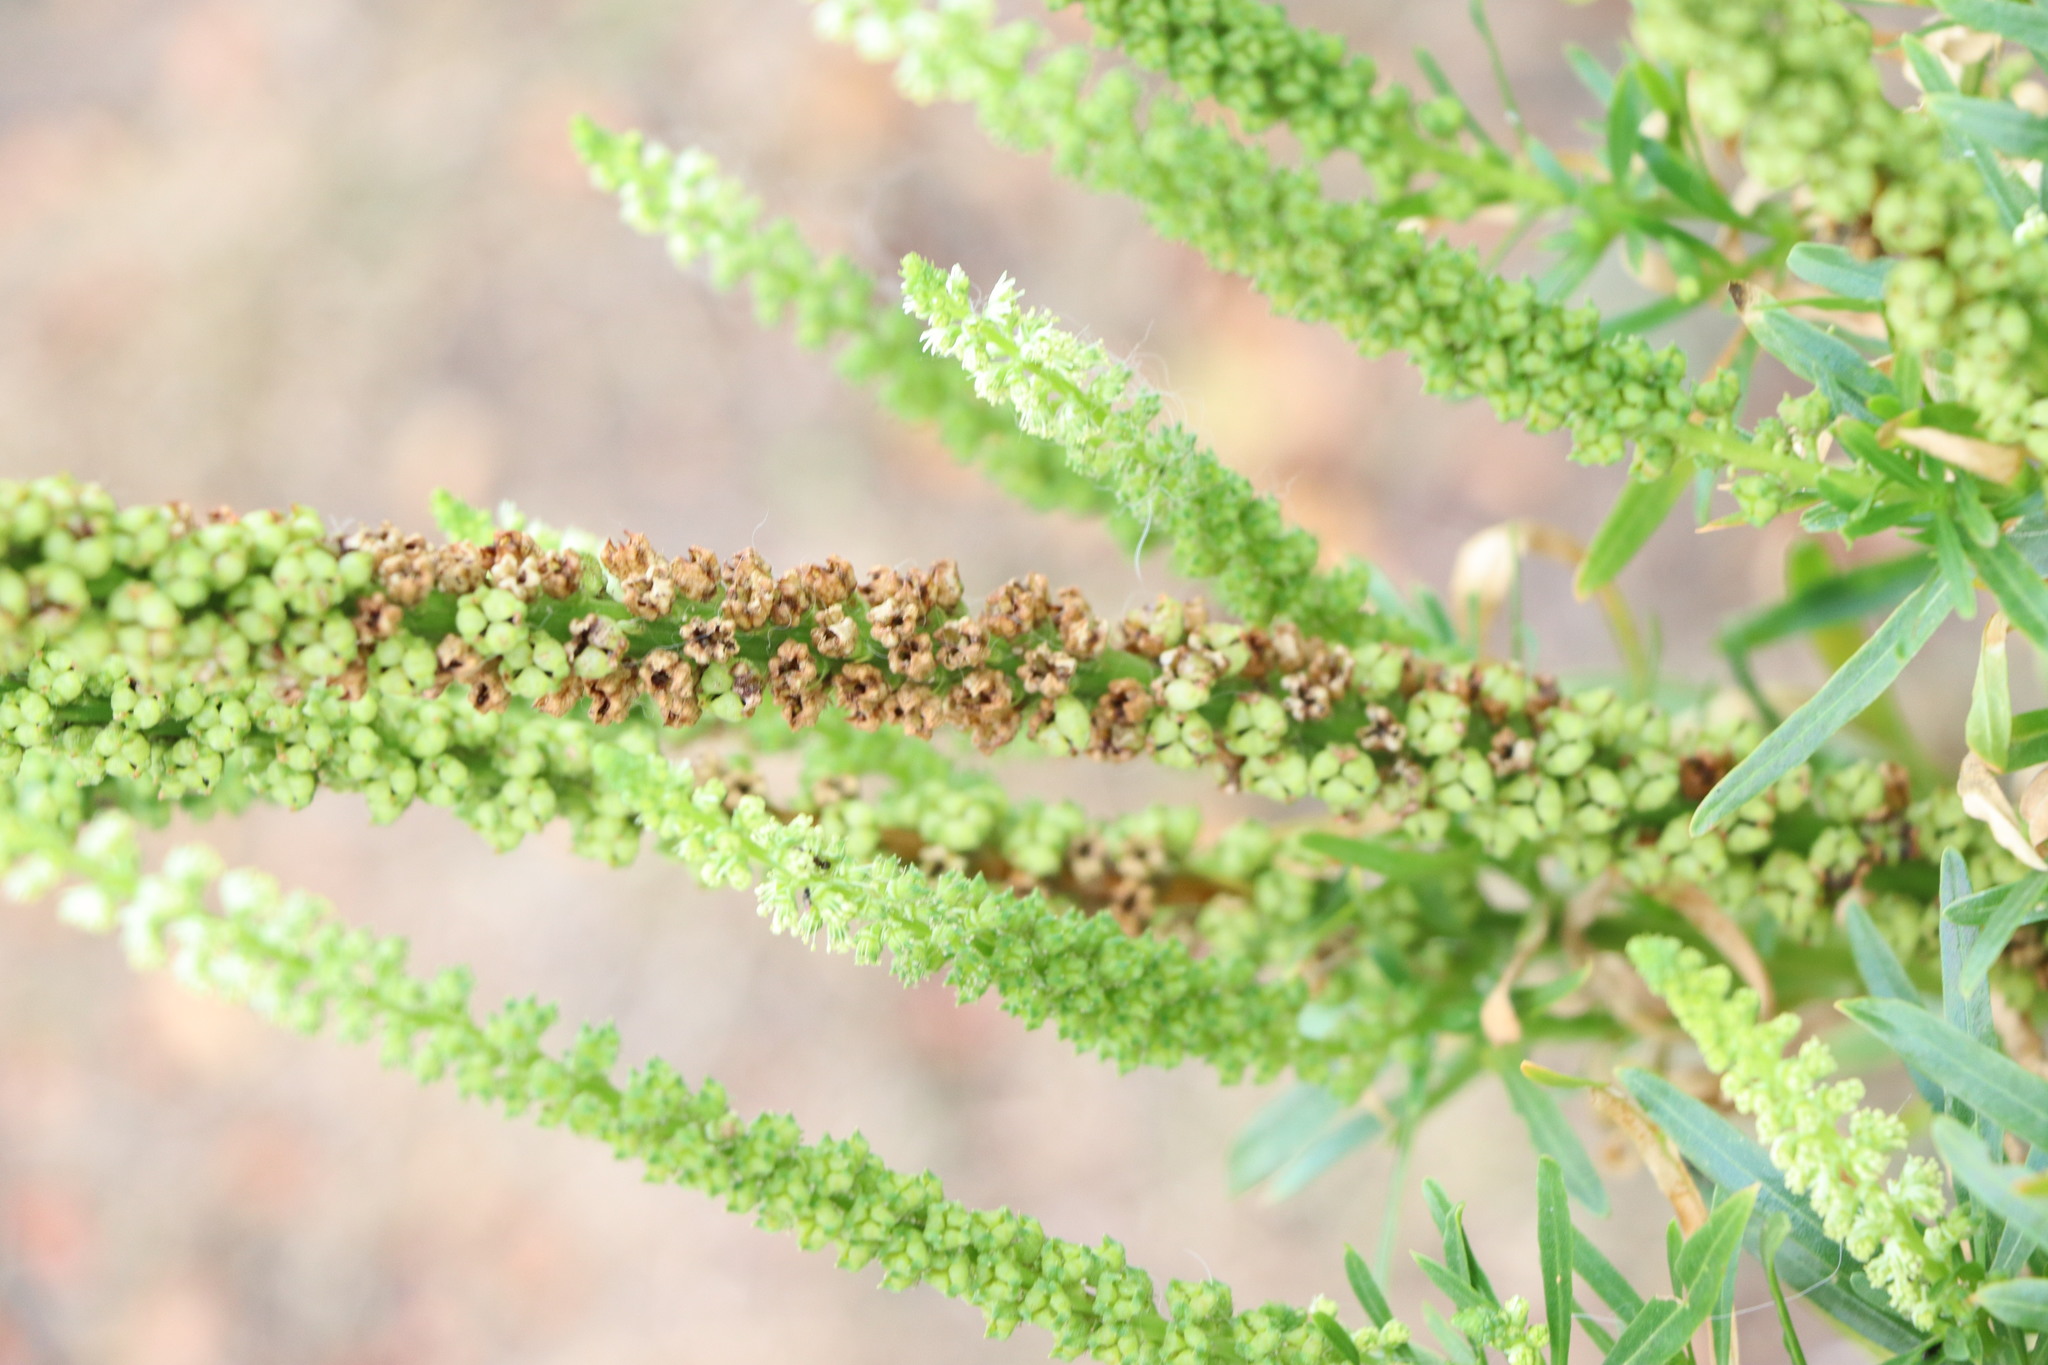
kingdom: Plantae
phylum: Tracheophyta
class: Magnoliopsida
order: Brassicales
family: Resedaceae
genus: Reseda
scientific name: Reseda luteola
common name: Weld
